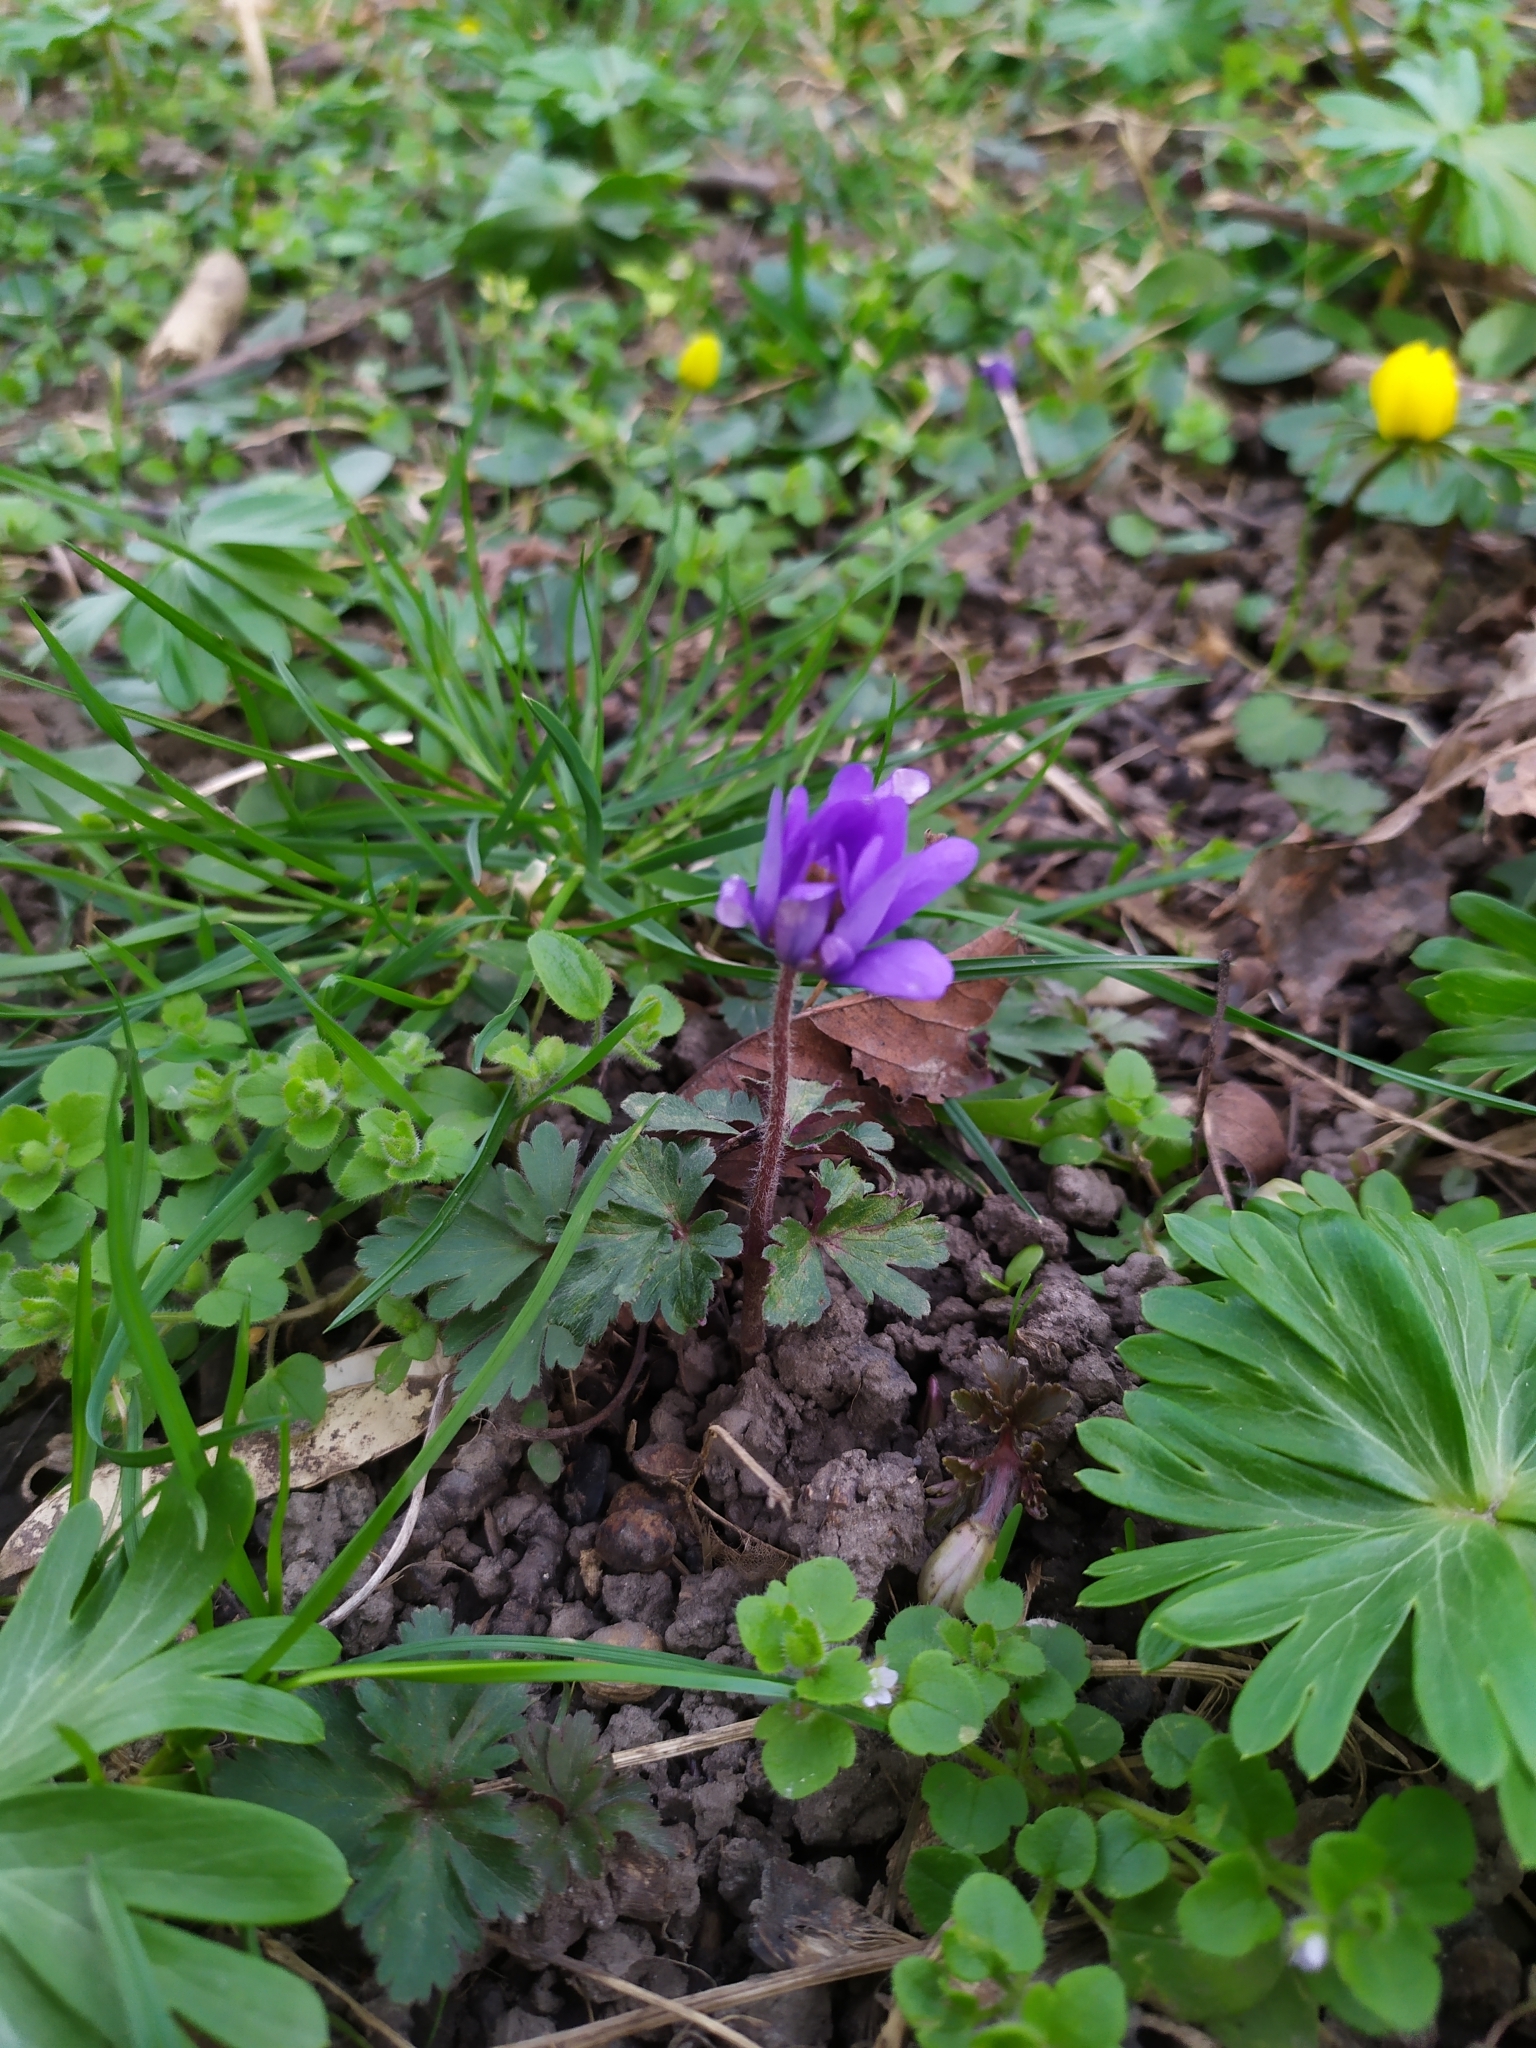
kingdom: Plantae
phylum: Tracheophyta
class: Magnoliopsida
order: Ranunculales
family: Ranunculaceae
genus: Anemone
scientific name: Anemone blanda
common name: Balkan anemone
